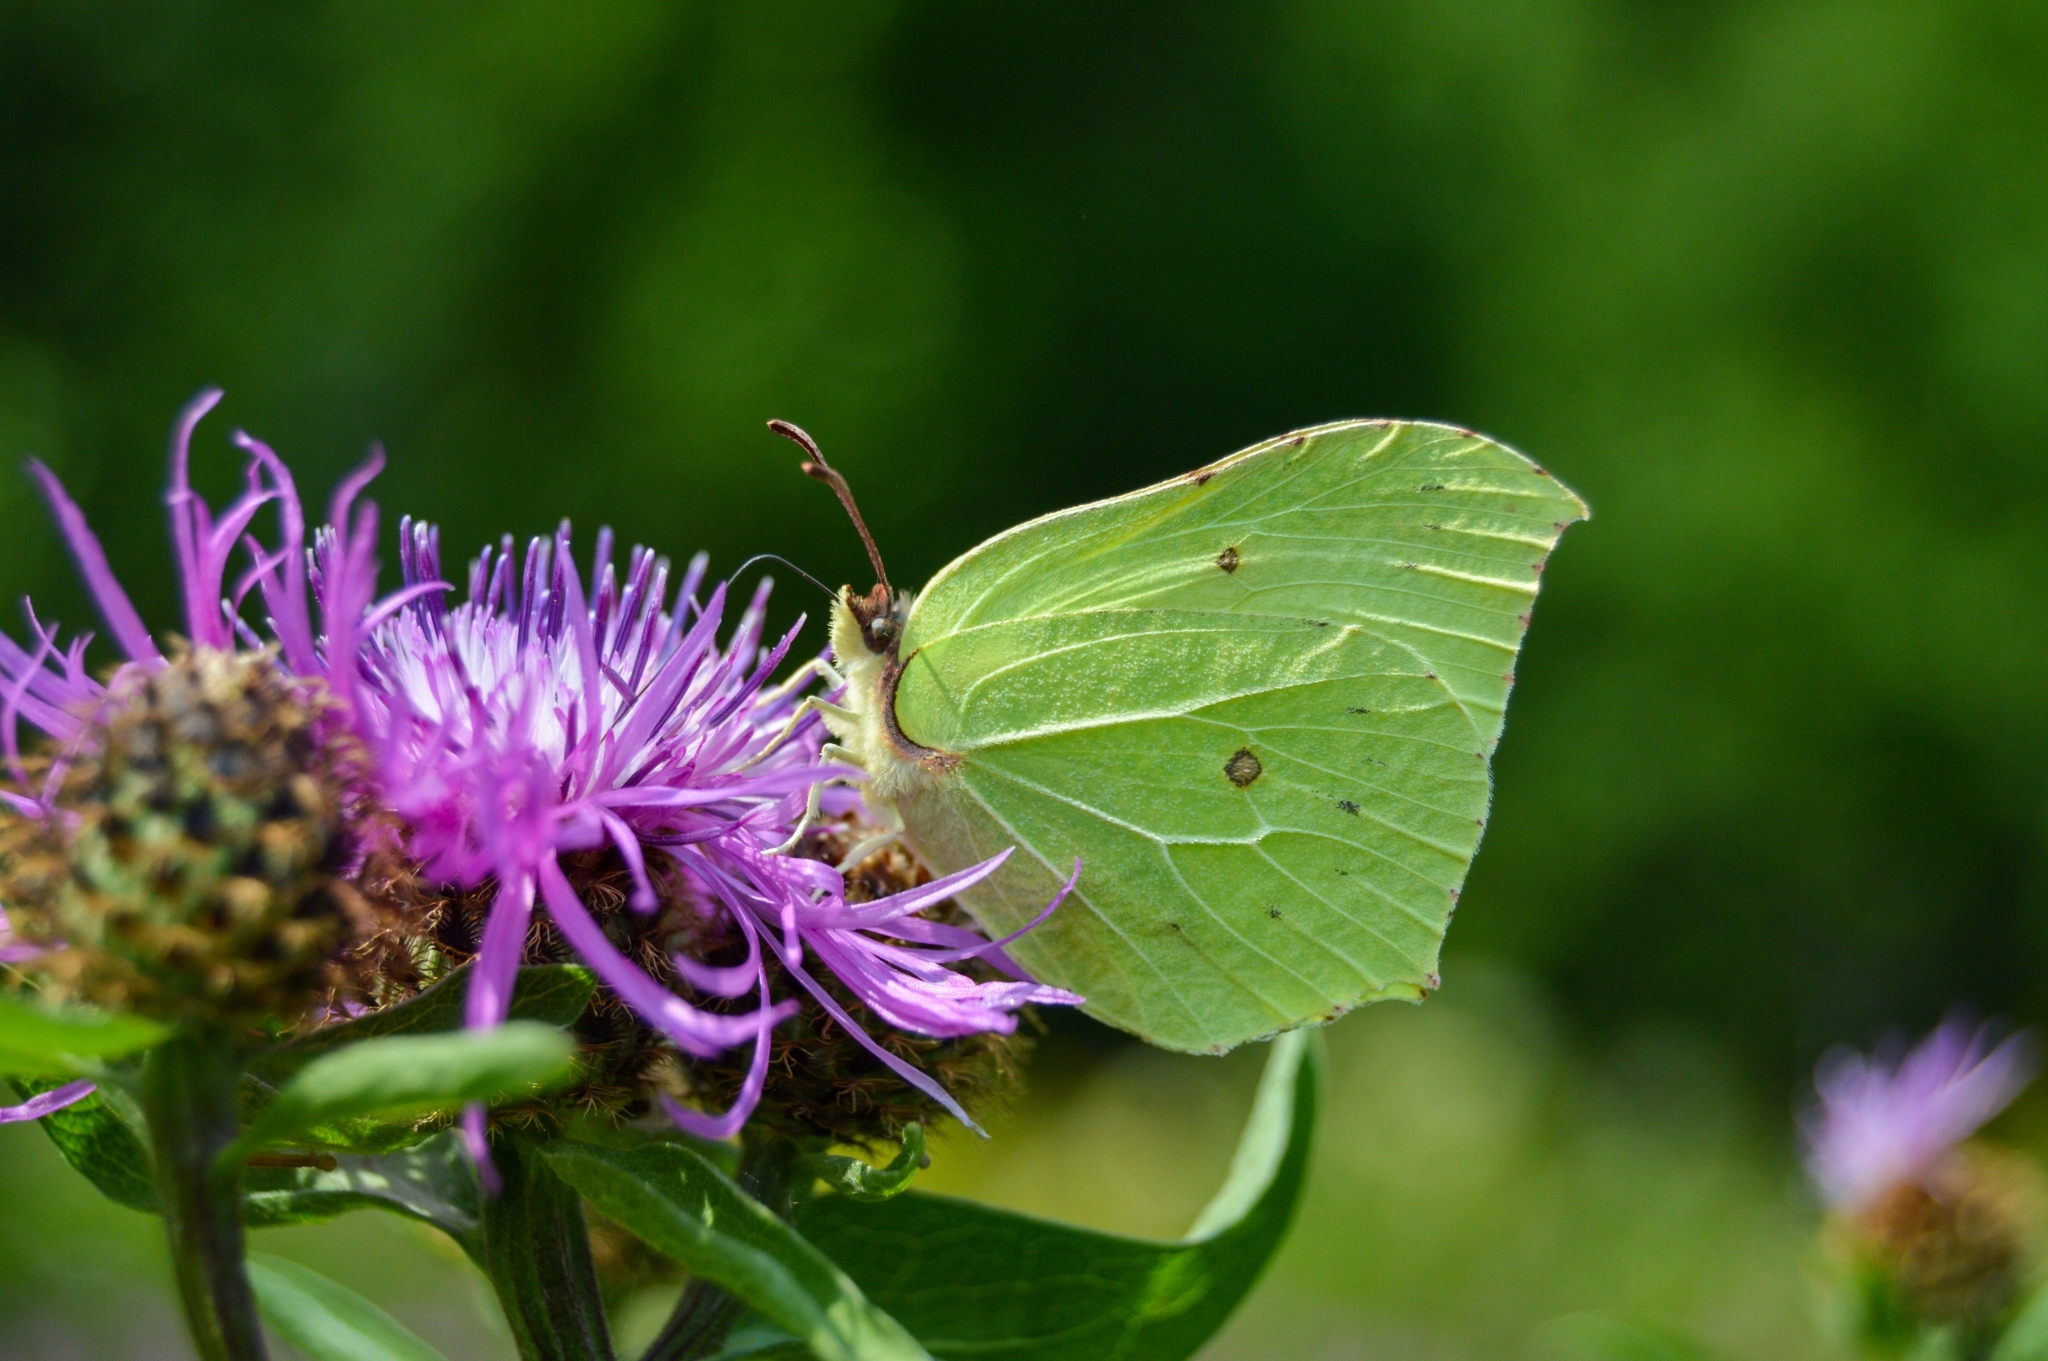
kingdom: Animalia
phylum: Arthropoda
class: Insecta
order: Lepidoptera
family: Pieridae
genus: Gonepteryx
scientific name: Gonepteryx rhamni
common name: Brimstone
